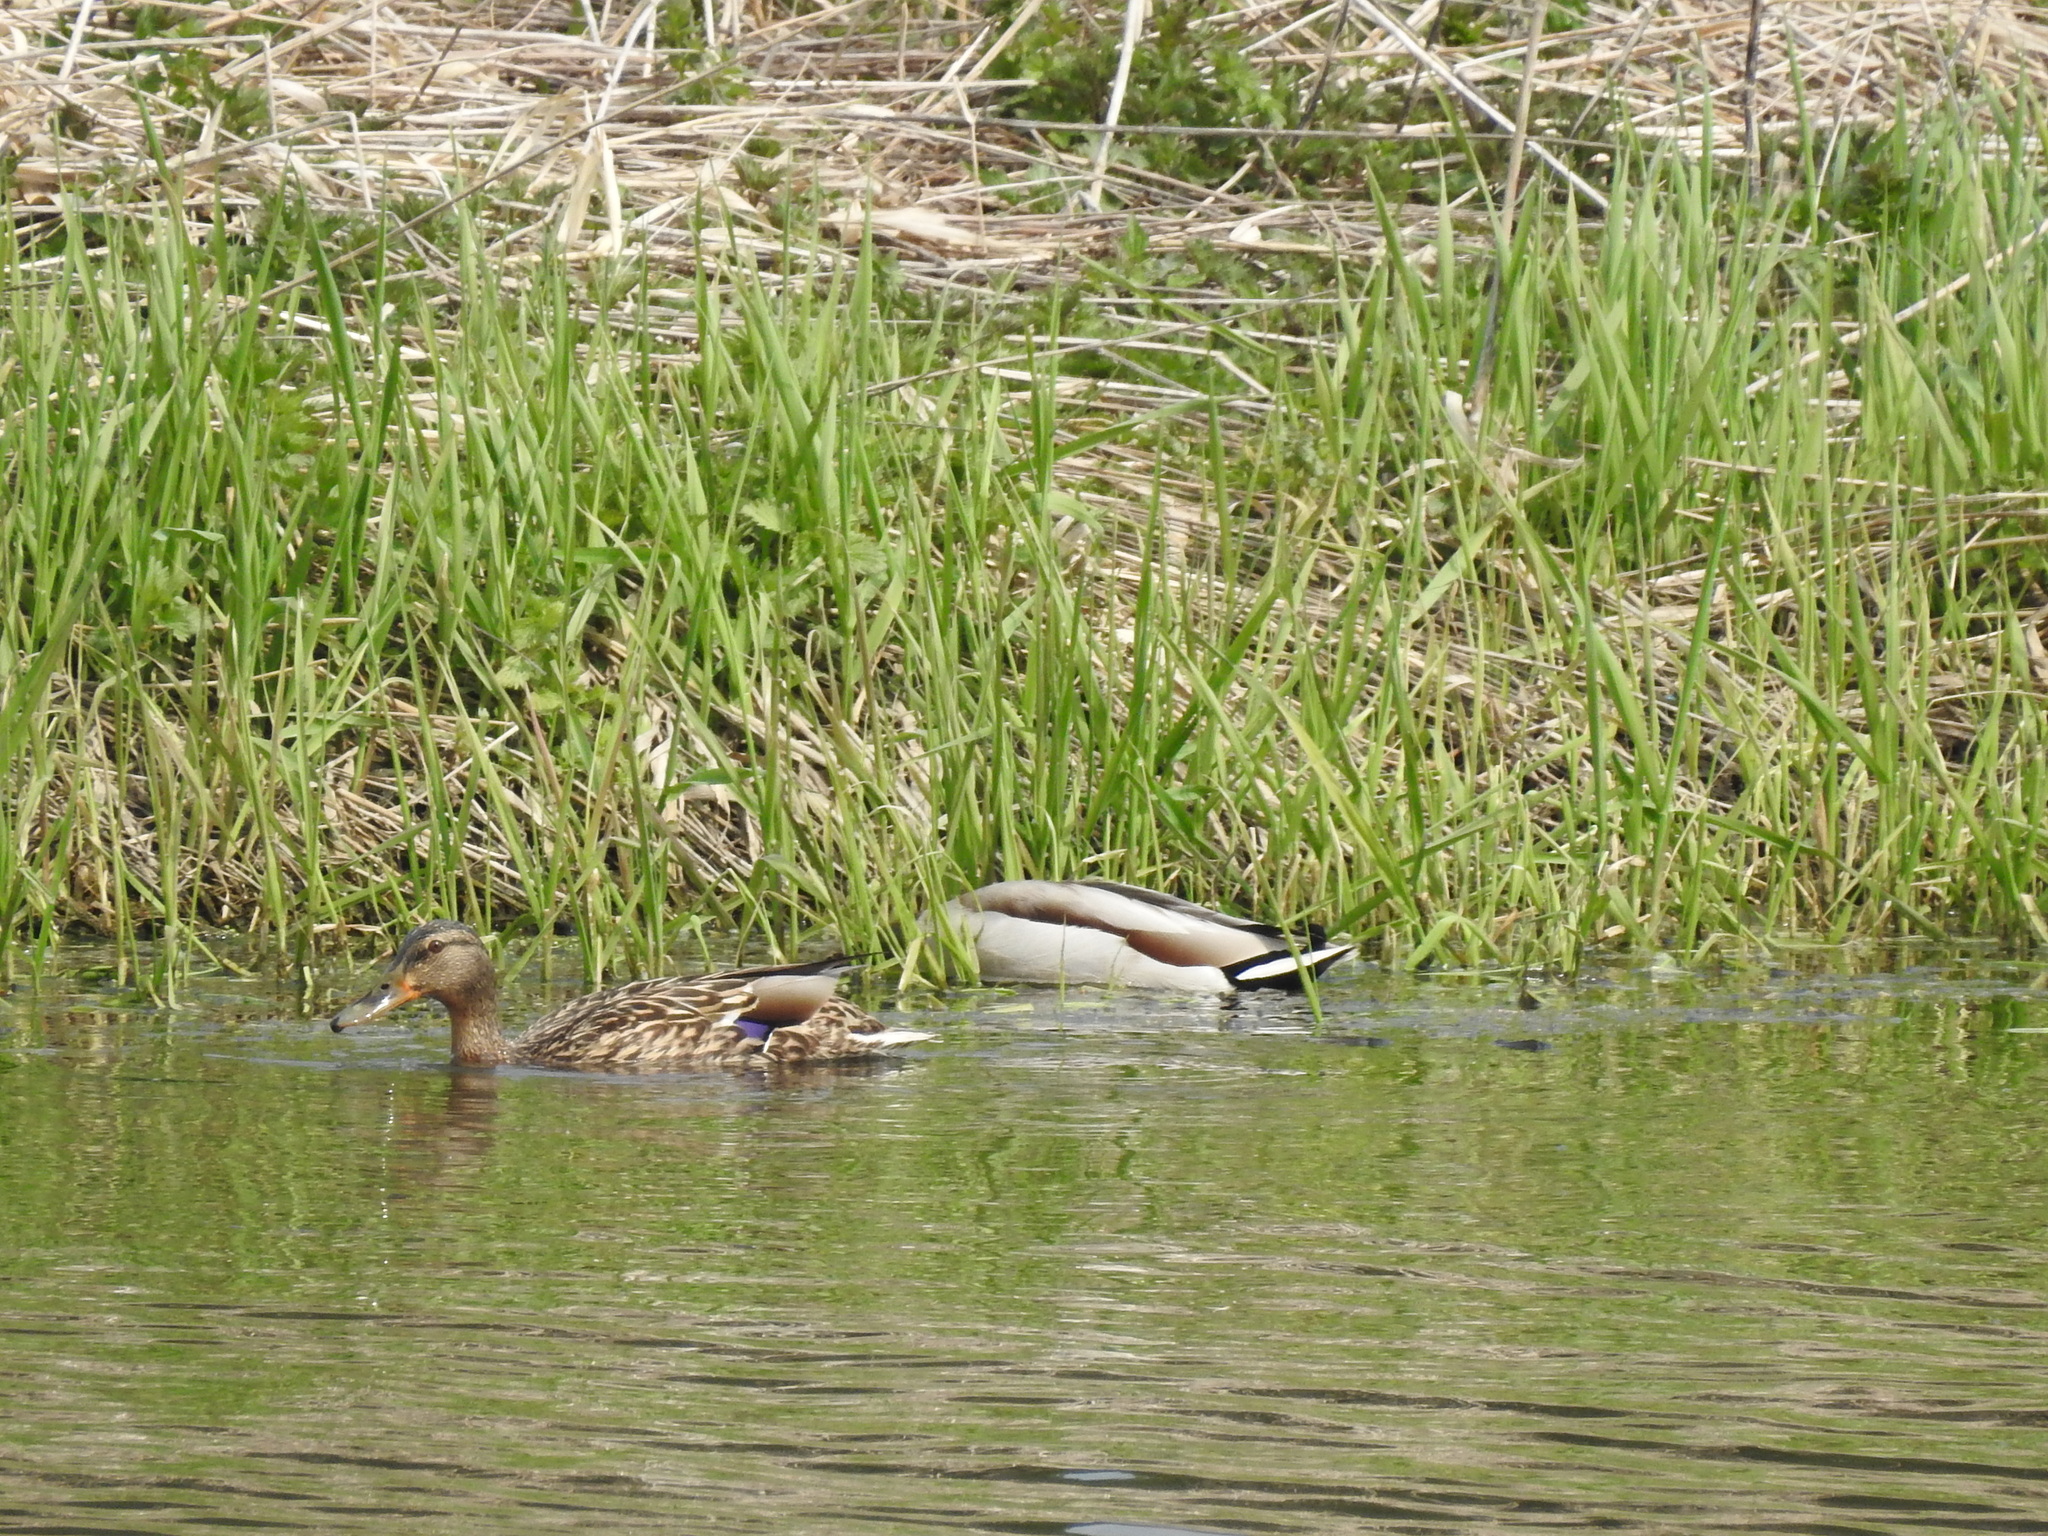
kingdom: Animalia
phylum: Chordata
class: Aves
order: Anseriformes
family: Anatidae
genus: Anas
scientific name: Anas platyrhynchos
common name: Mallard
